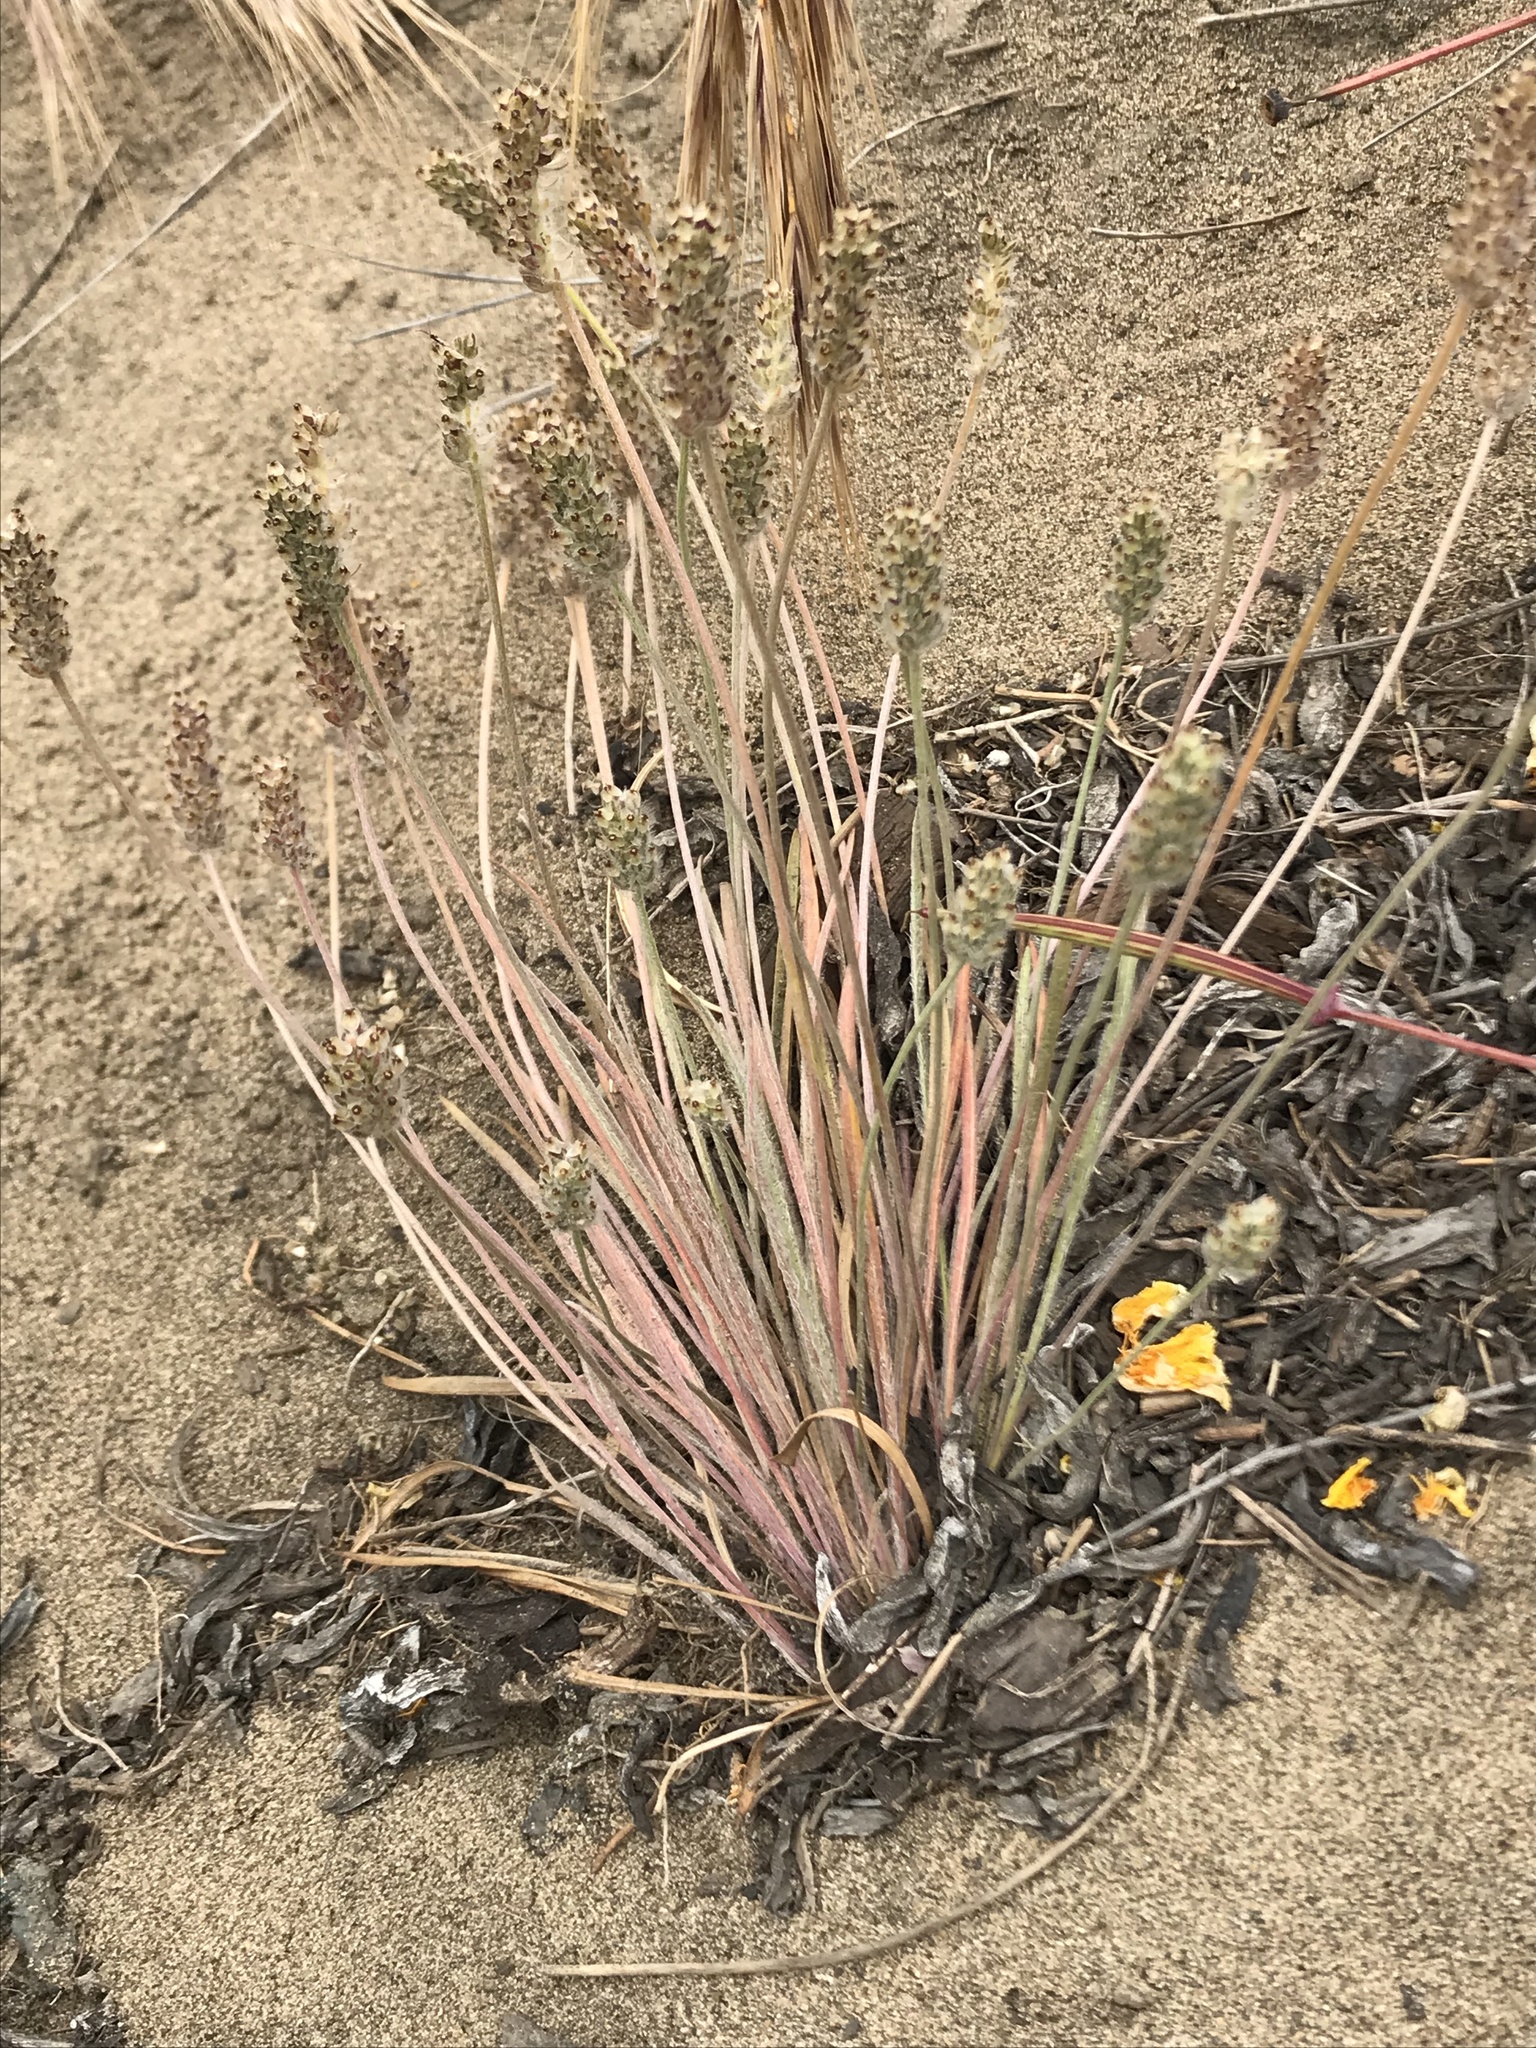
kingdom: Plantae
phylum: Tracheophyta
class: Magnoliopsida
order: Lamiales
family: Plantaginaceae
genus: Plantago
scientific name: Plantago erecta
